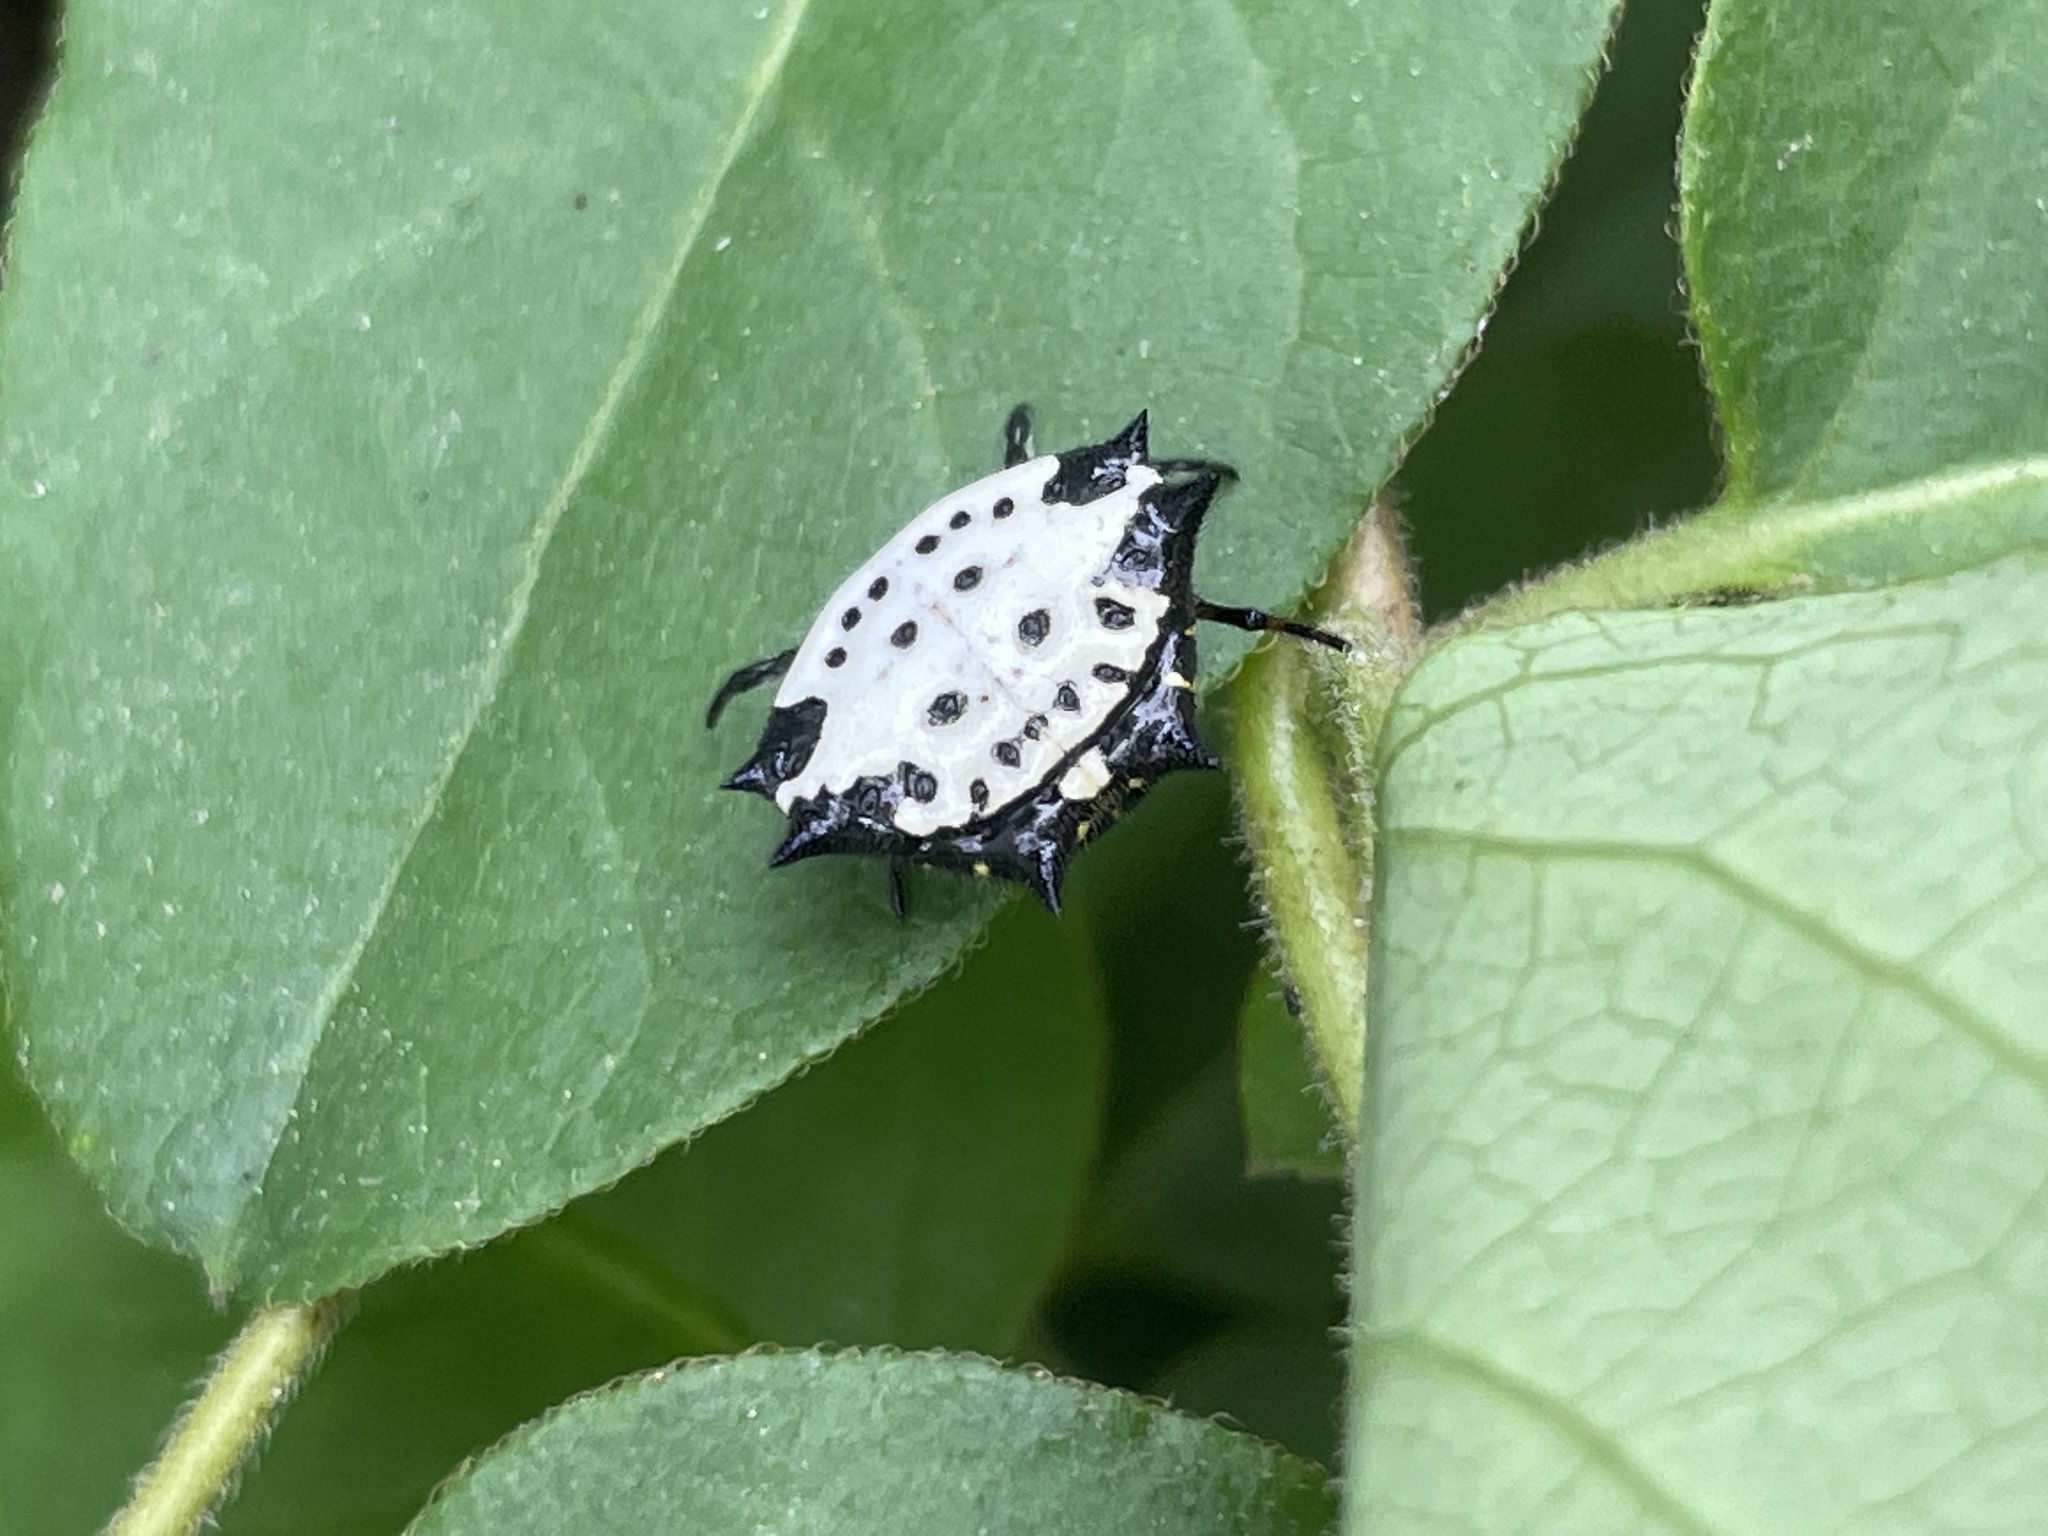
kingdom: Animalia
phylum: Arthropoda
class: Arachnida
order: Araneae
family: Araneidae
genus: Gasteracantha
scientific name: Gasteracantha cancriformis
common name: Orb weavers
